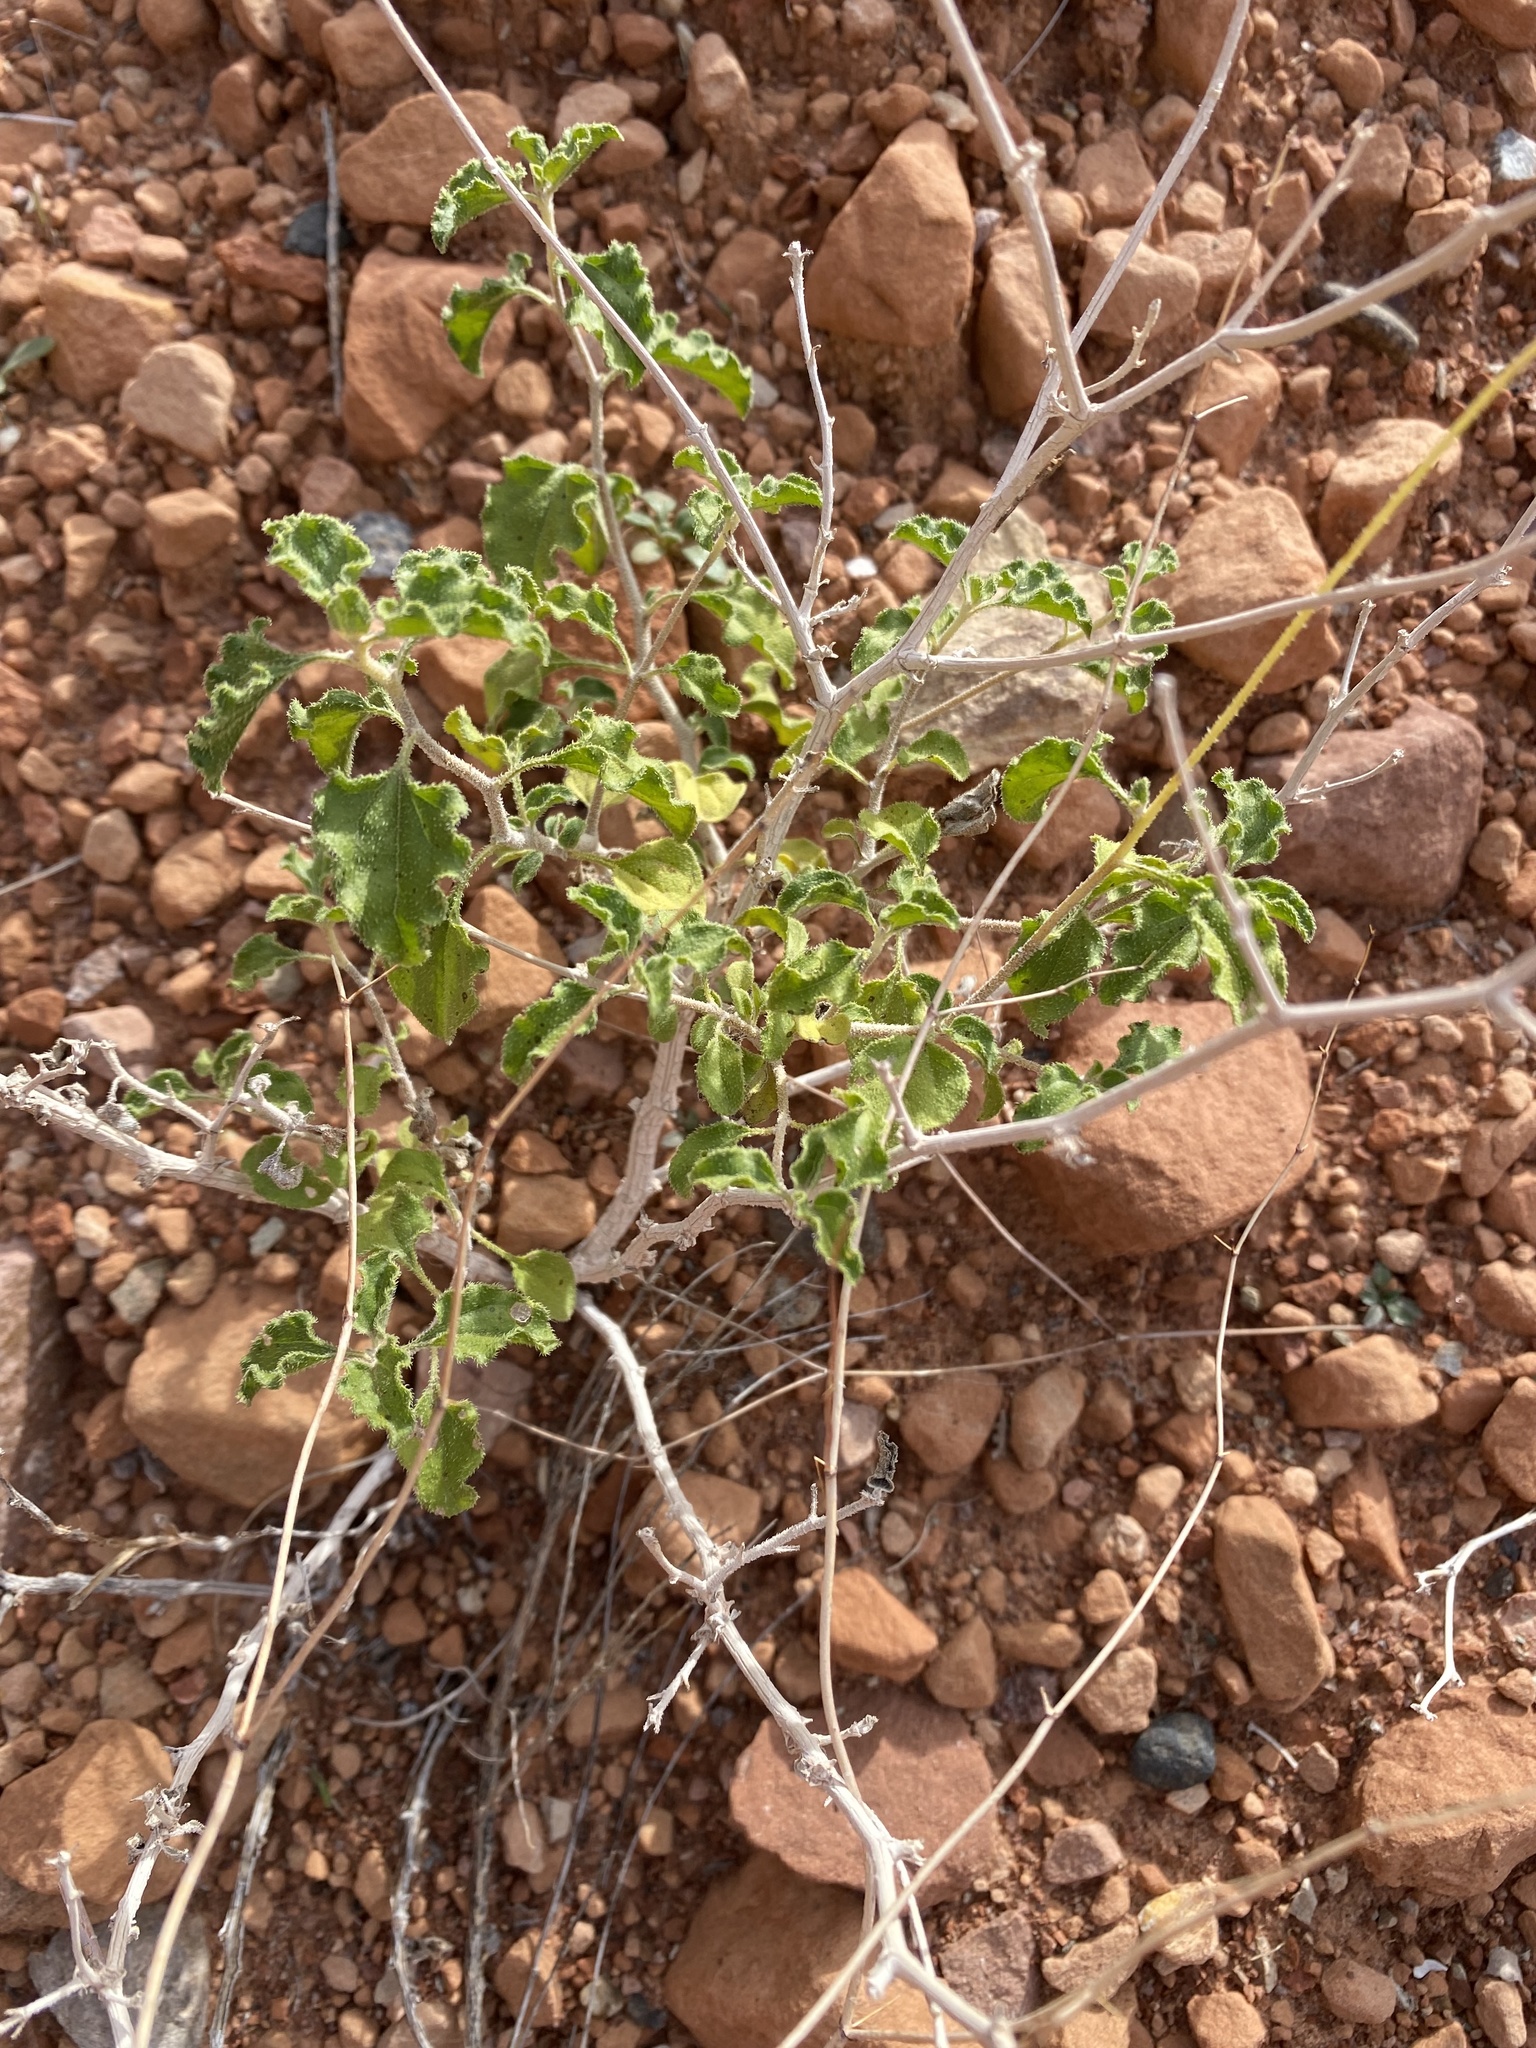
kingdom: Plantae
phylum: Tracheophyta
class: Magnoliopsida
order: Asterales
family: Asteraceae
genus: Encelia
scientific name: Encelia resinifera
